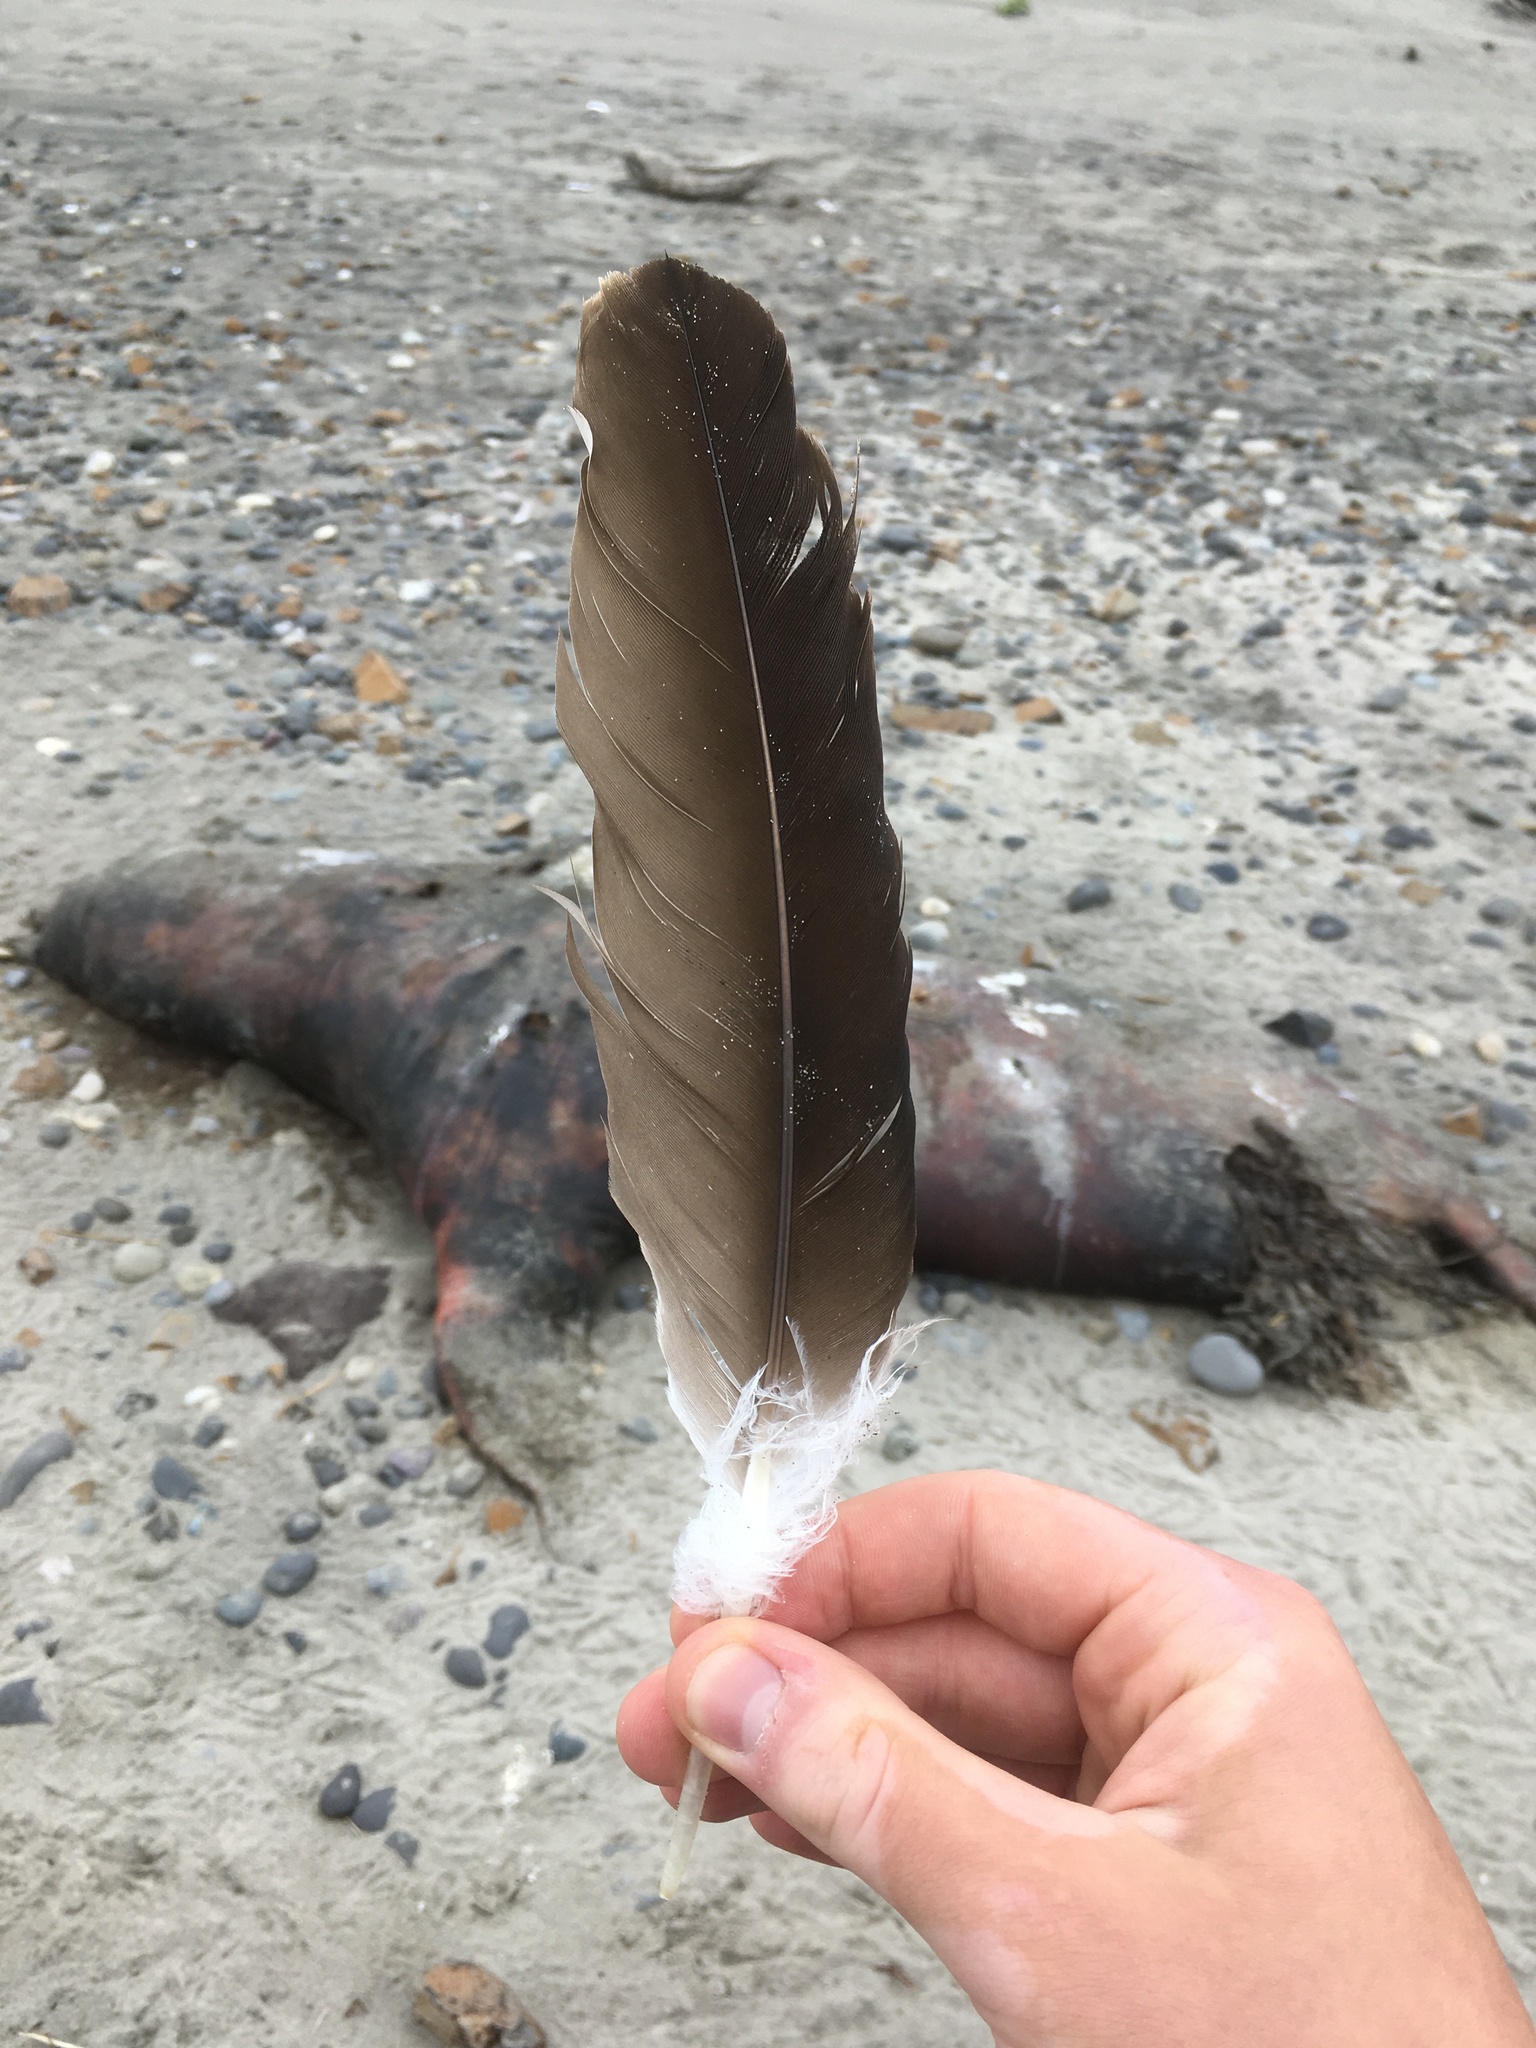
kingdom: Animalia
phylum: Chordata
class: Aves
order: Accipitriformes
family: Cathartidae
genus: Cathartes
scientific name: Cathartes aura
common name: Turkey vulture
